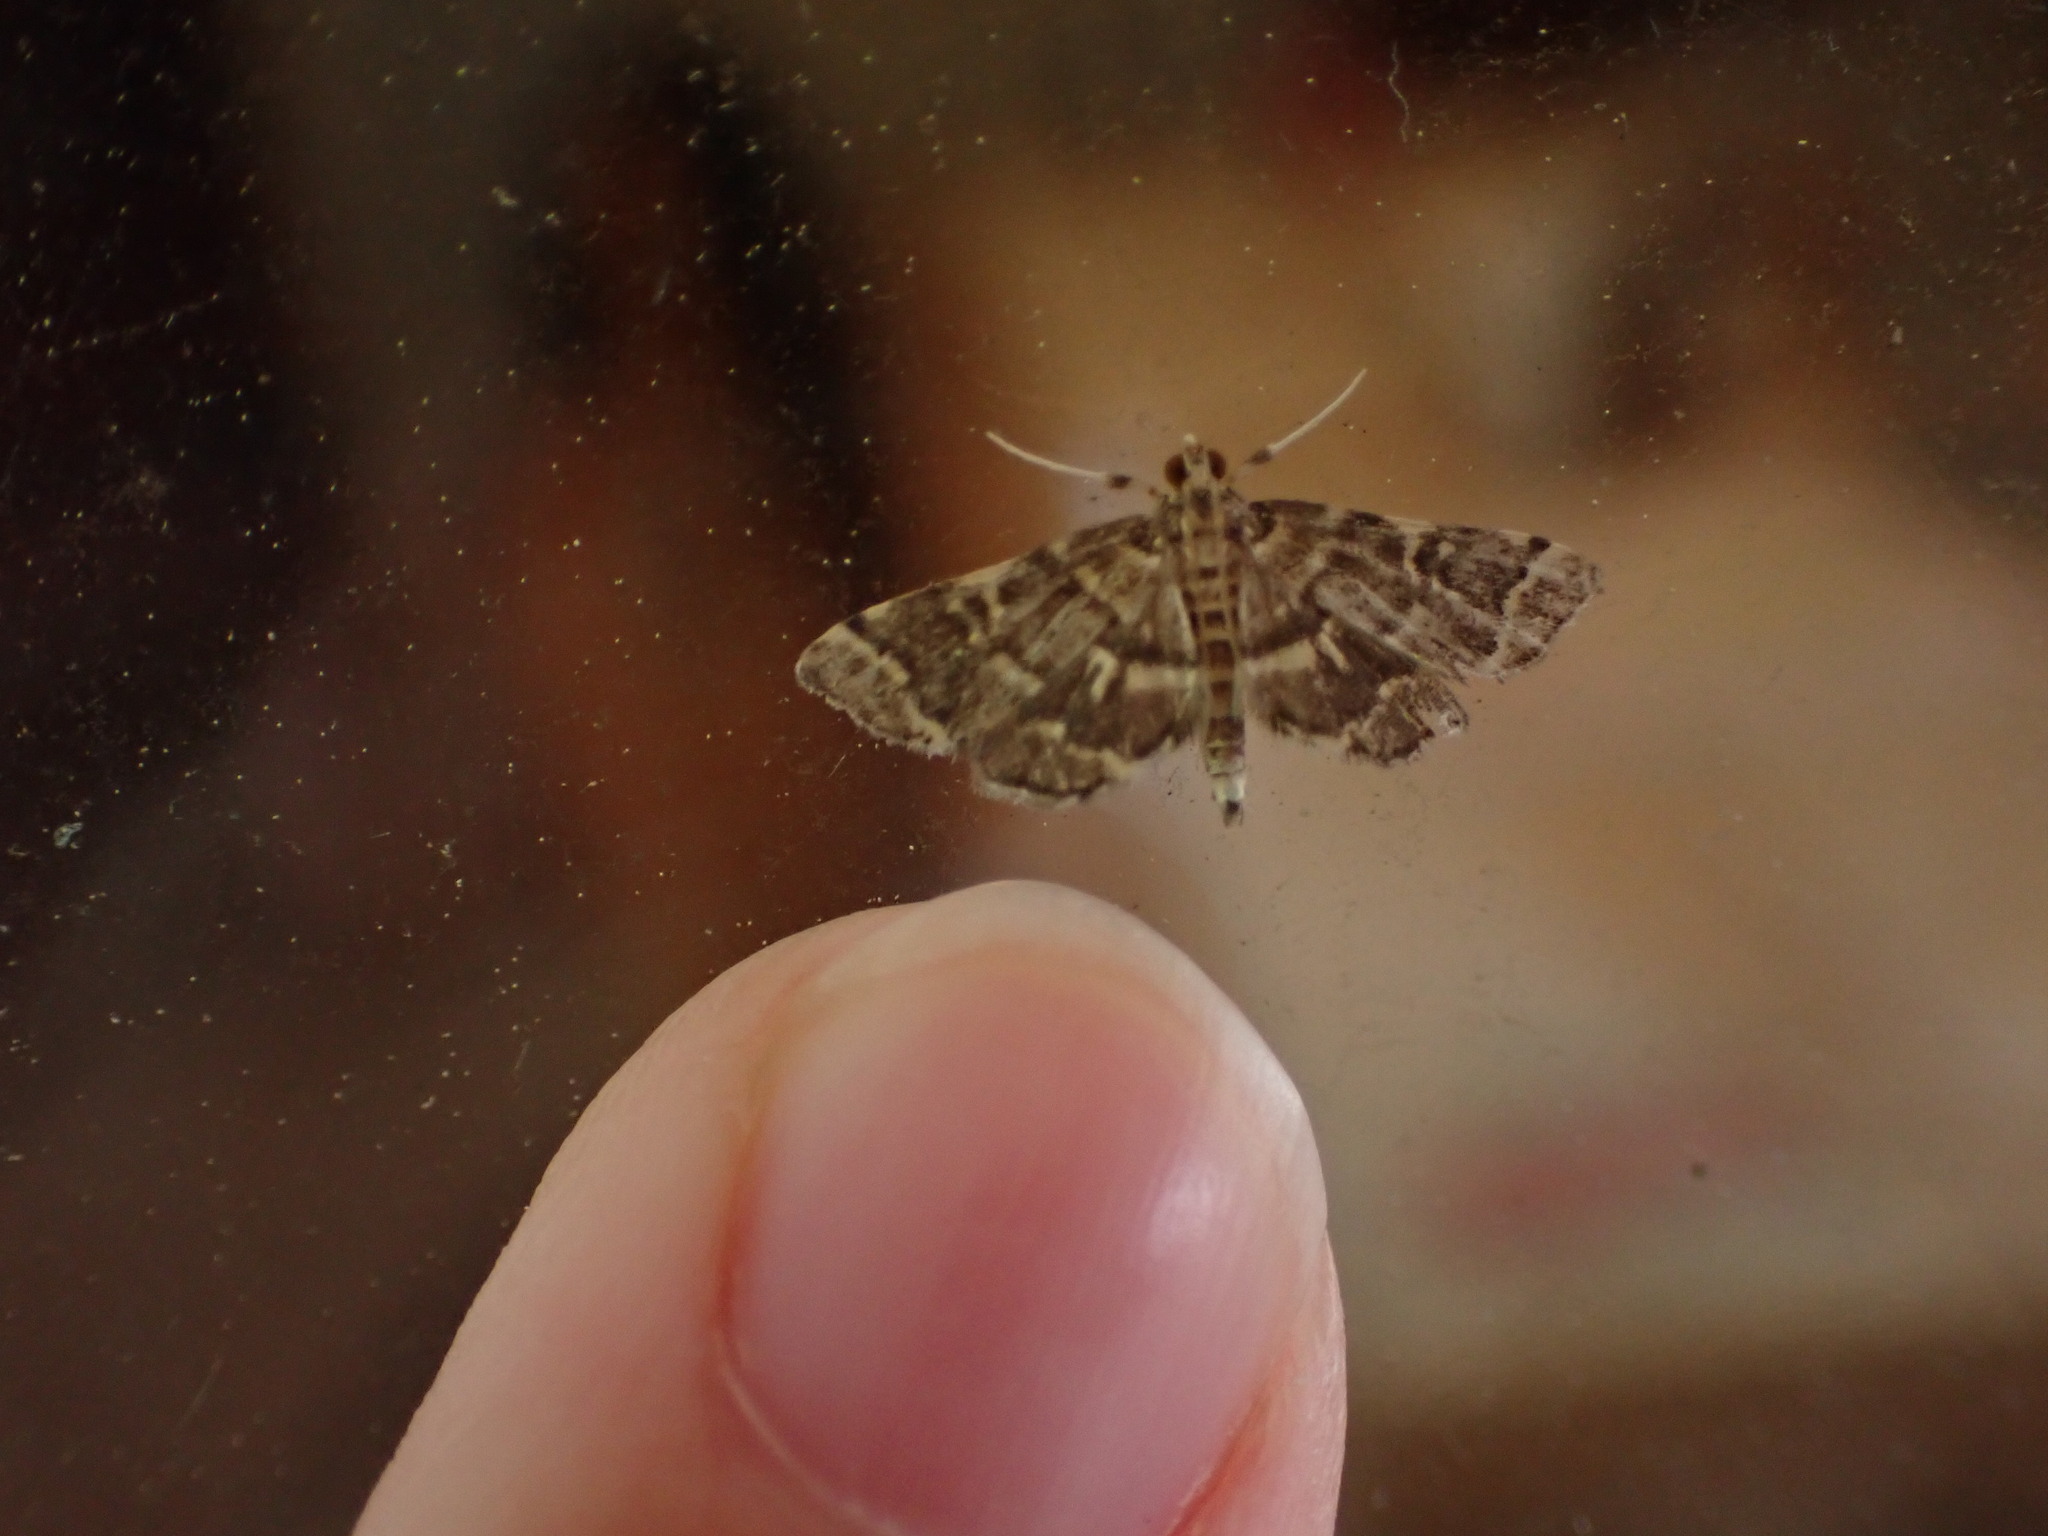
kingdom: Animalia
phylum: Arthropoda
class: Insecta
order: Lepidoptera
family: Crambidae
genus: Anageshna
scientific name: Anageshna primordialis
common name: Yellow-spotted webworm moth
